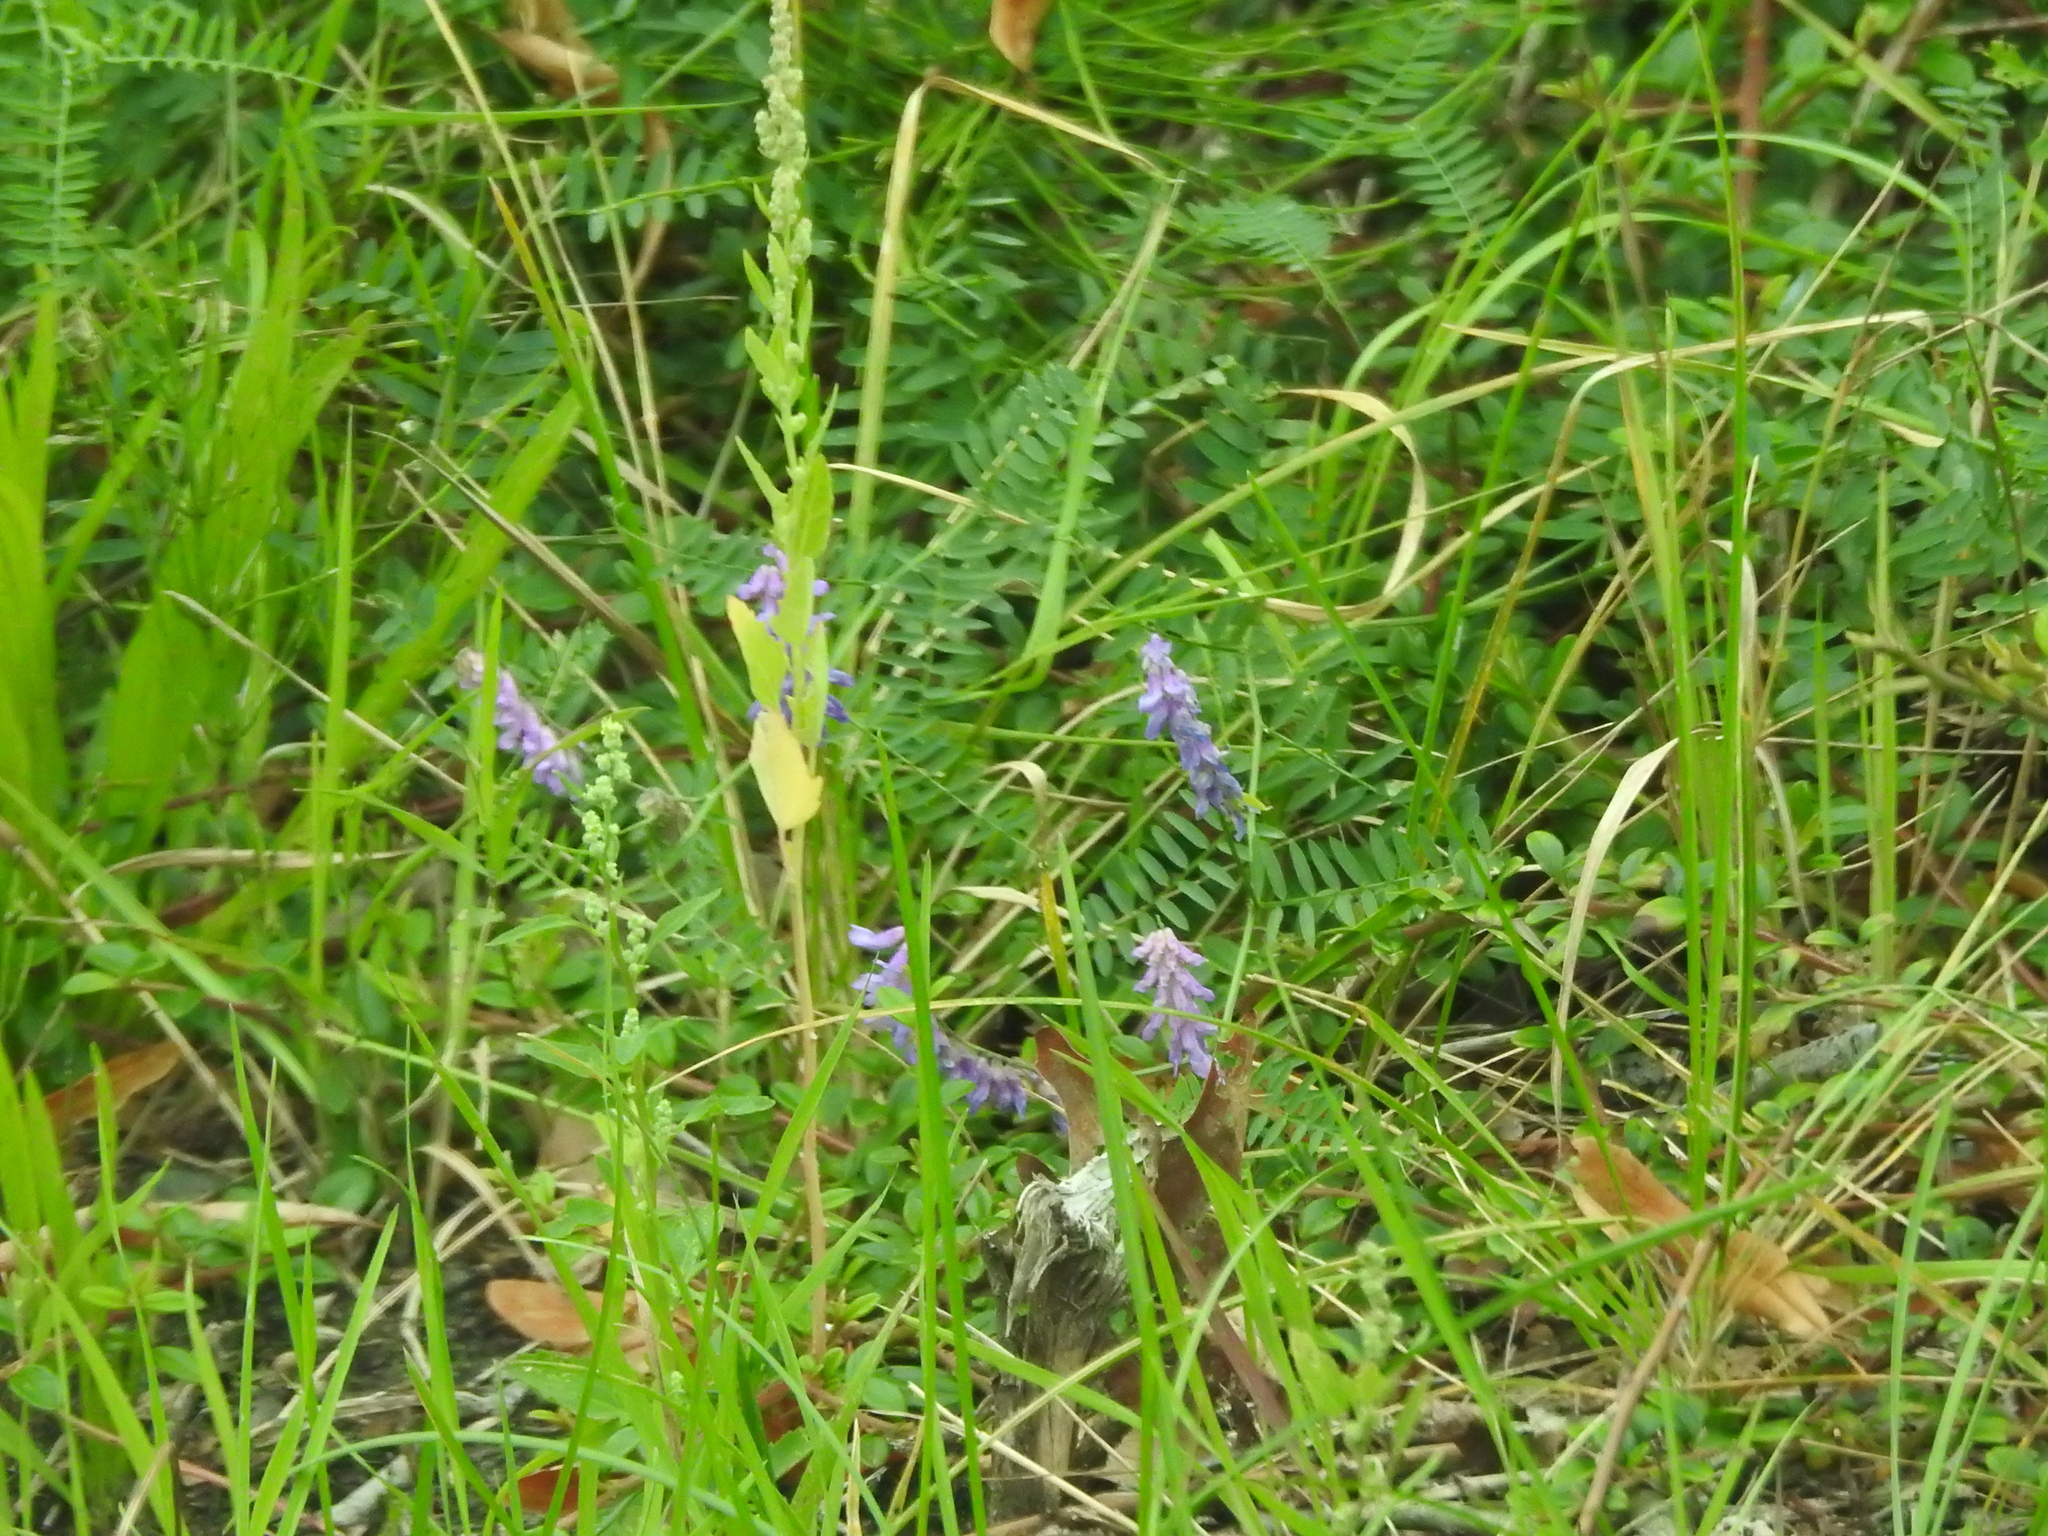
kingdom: Plantae
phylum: Tracheophyta
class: Magnoliopsida
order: Fabales
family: Fabaceae
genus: Vicia
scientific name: Vicia cracca
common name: Bird vetch
